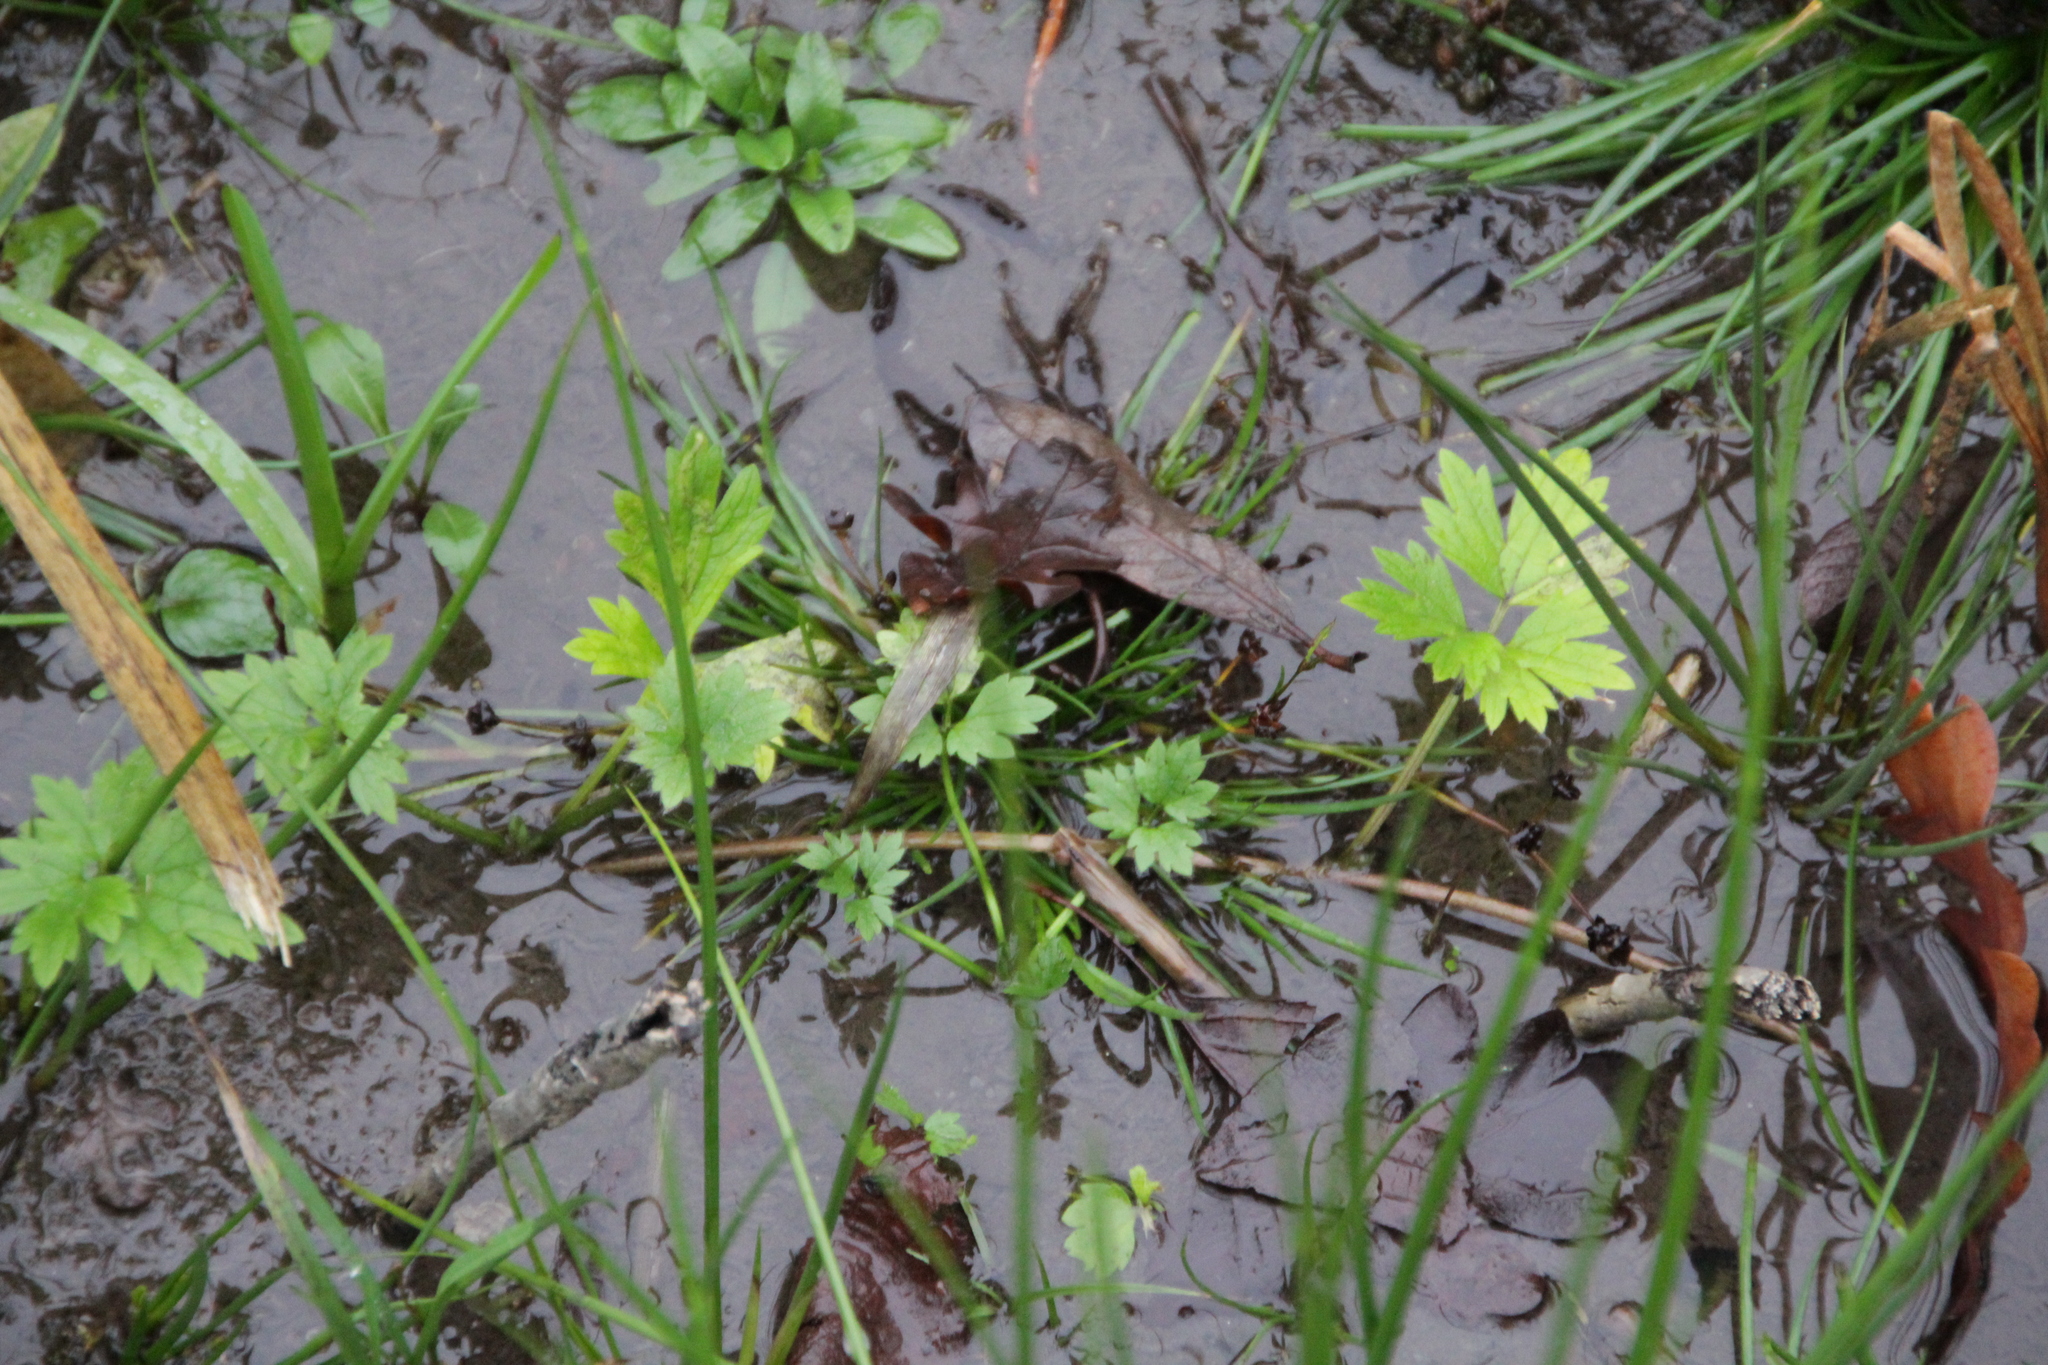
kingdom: Plantae
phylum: Tracheophyta
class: Magnoliopsida
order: Ranunculales
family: Ranunculaceae
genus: Ranunculus
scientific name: Ranunculus repens
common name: Creeping buttercup
